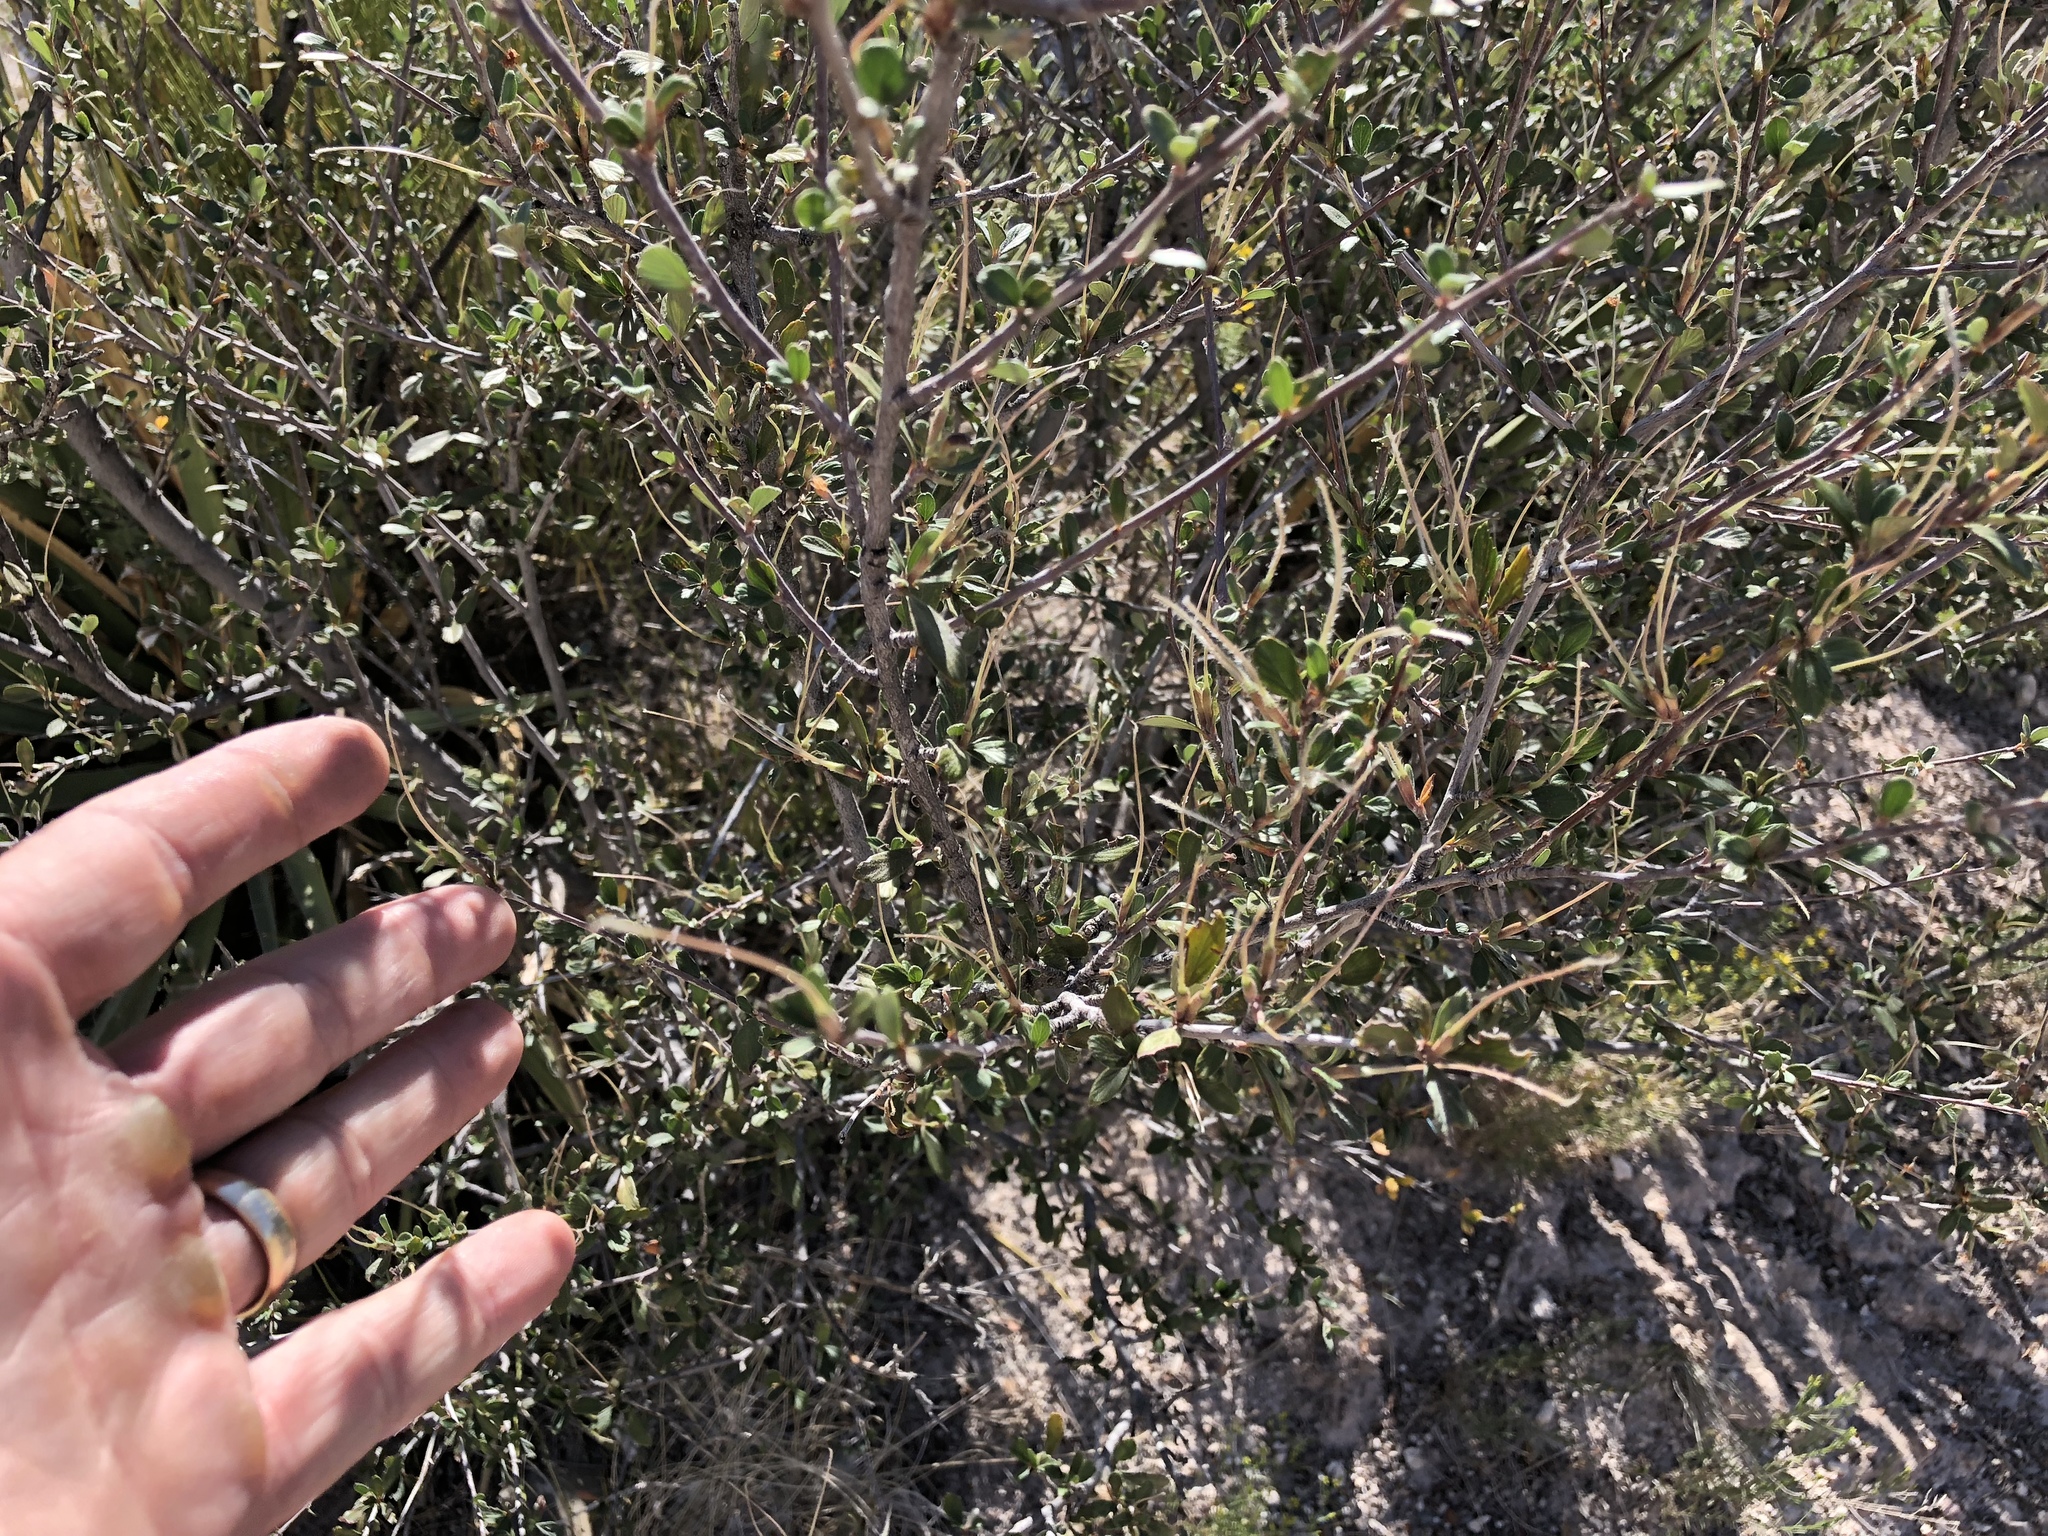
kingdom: Plantae
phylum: Tracheophyta
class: Magnoliopsida
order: Rosales
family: Rosaceae
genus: Cercocarpus
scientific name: Cercocarpus breviflorus
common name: Wright's mountain-mahogany
